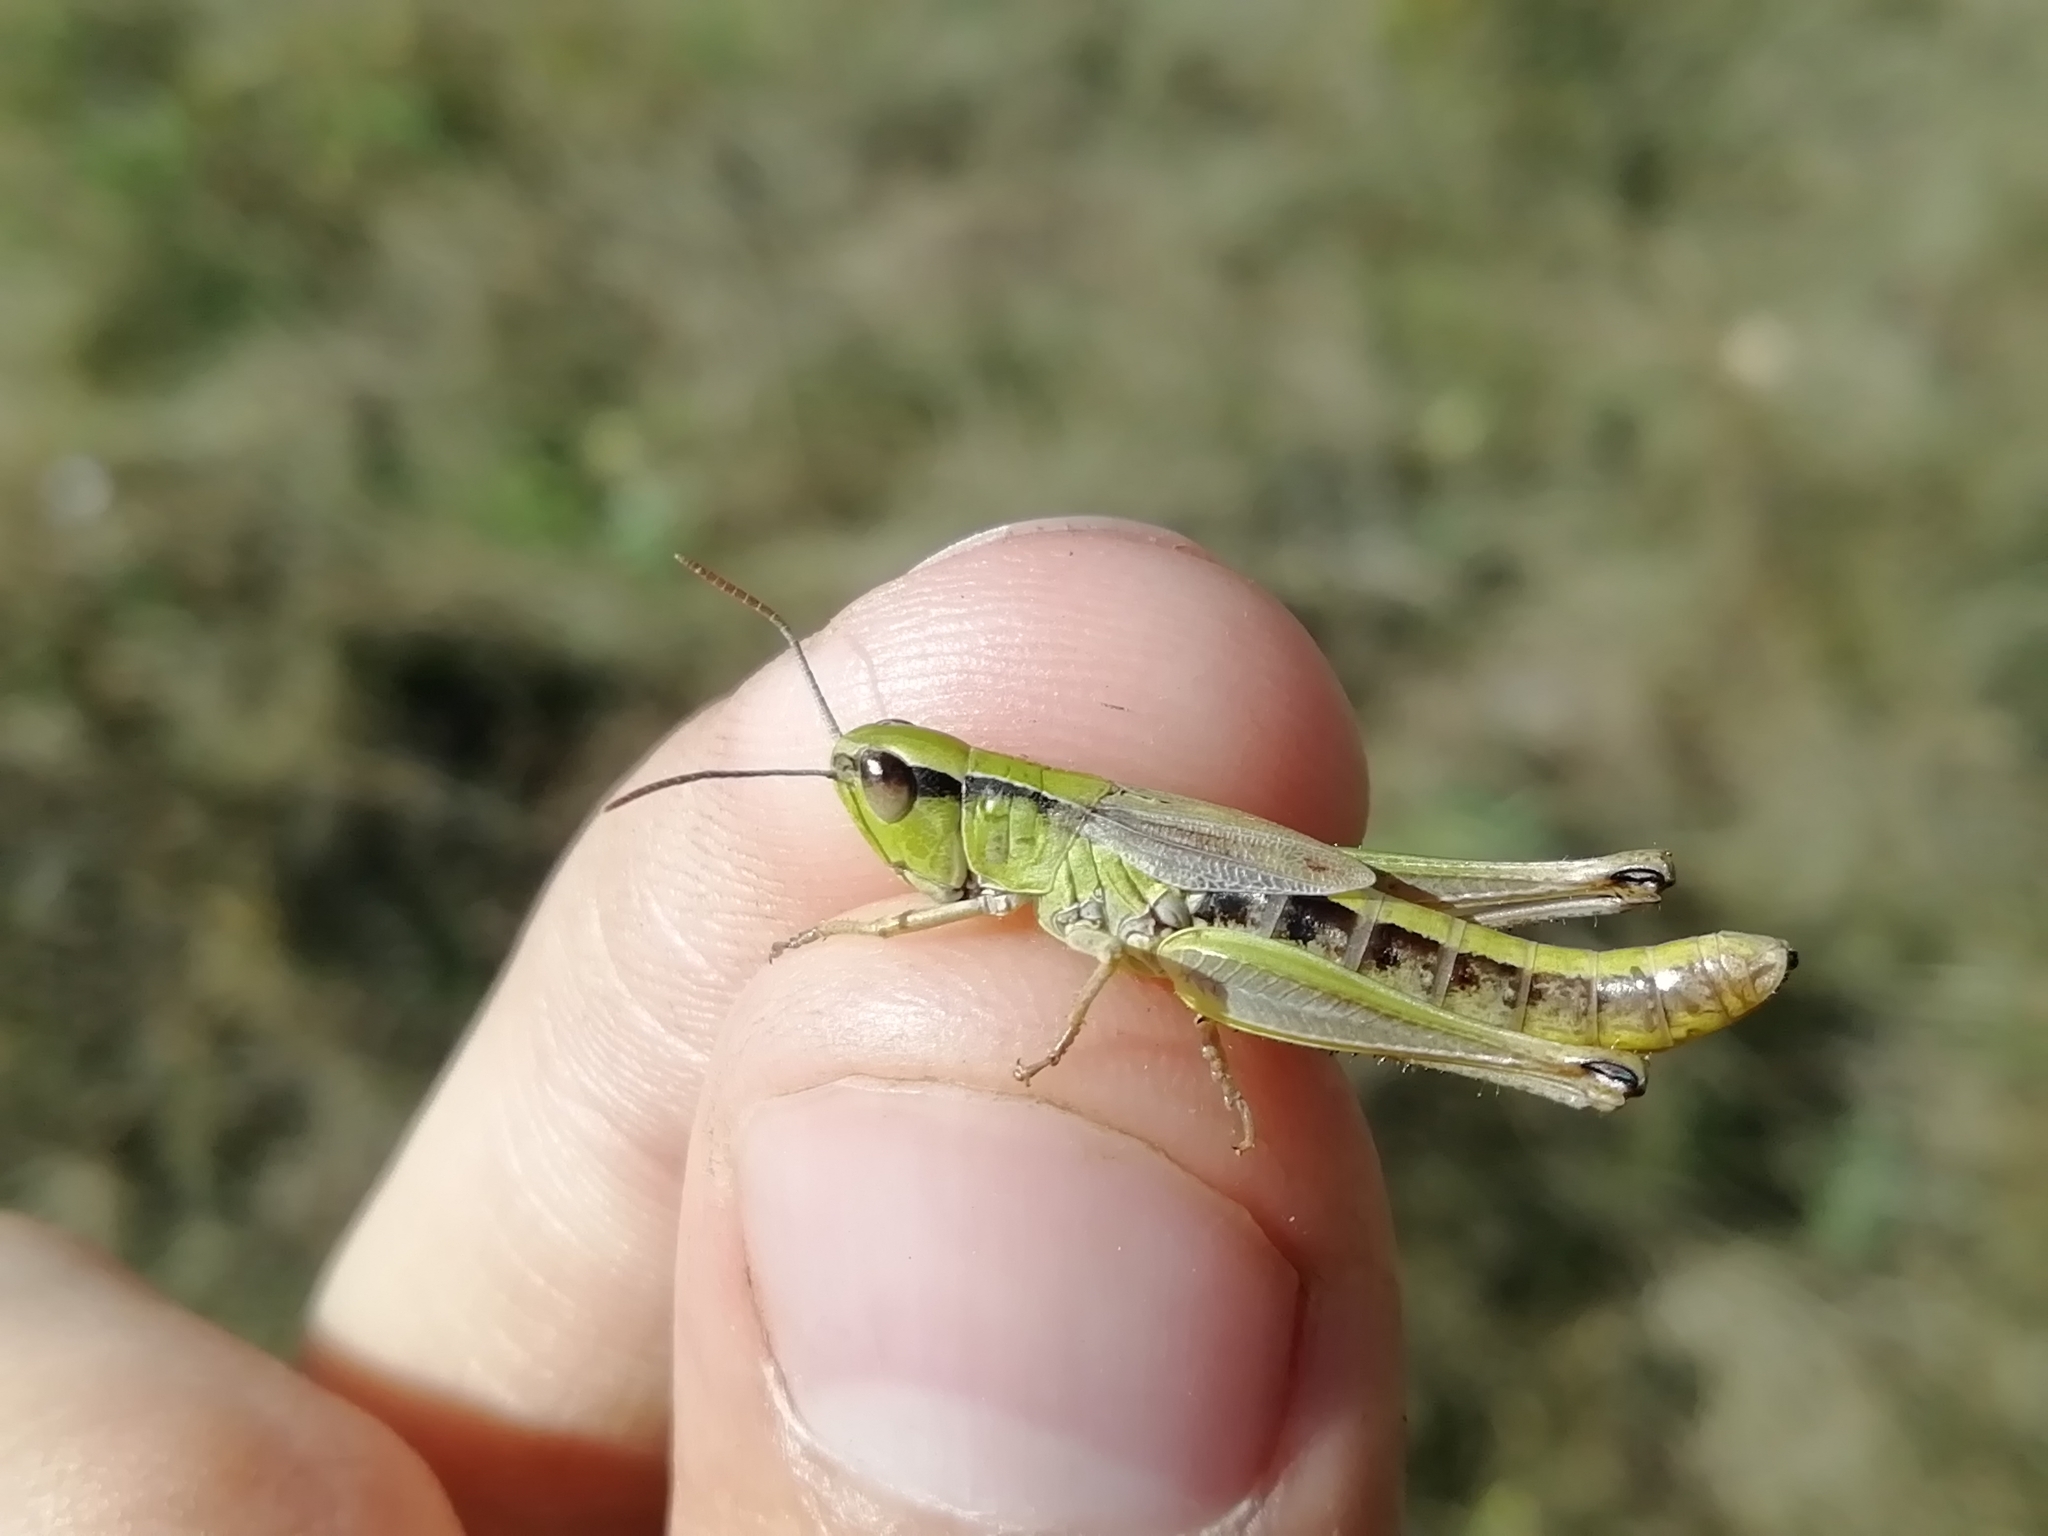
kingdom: Animalia
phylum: Arthropoda
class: Insecta
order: Orthoptera
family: Acrididae
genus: Pseudochorthippus
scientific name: Pseudochorthippus parallelus
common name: Meadow grasshopper
